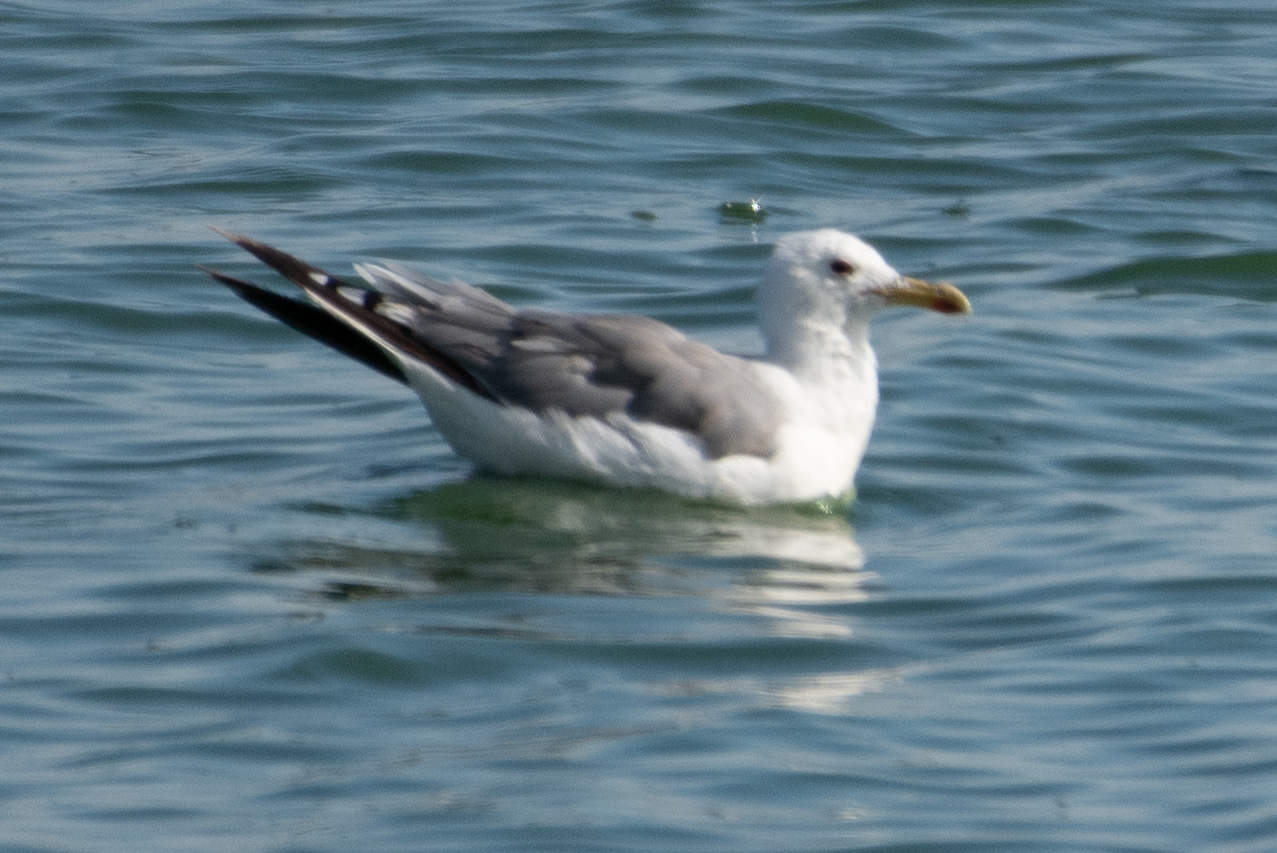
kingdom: Animalia
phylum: Chordata
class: Aves
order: Charadriiformes
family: Laridae
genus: Larus
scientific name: Larus californicus
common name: California gull
